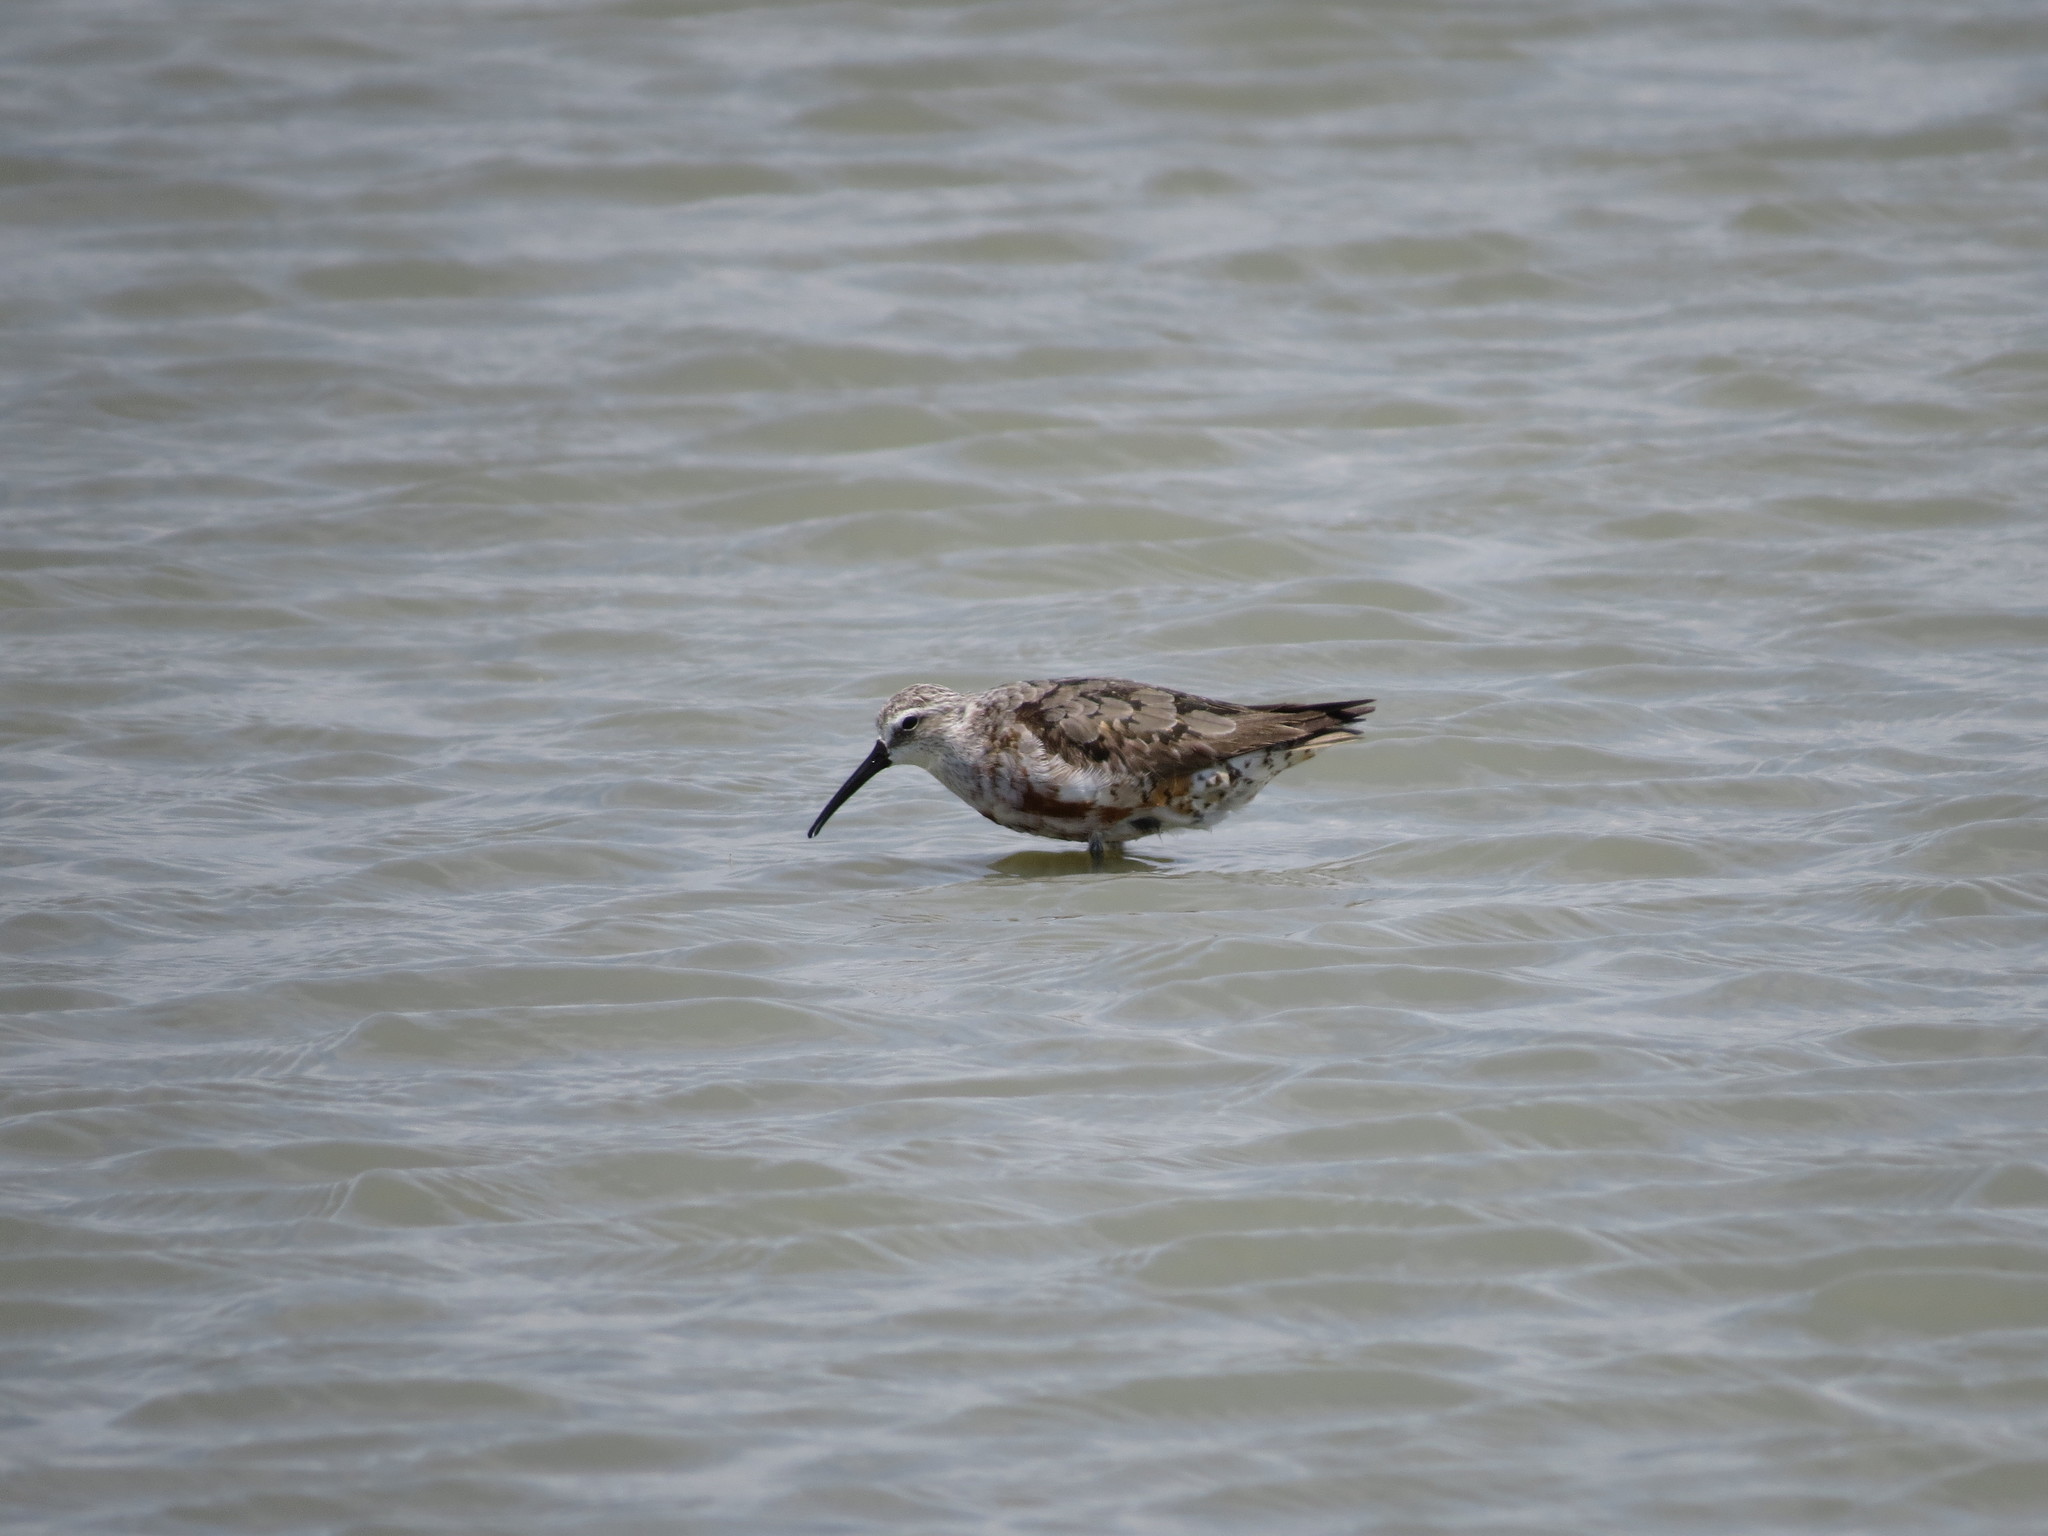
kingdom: Animalia
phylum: Chordata
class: Aves
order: Charadriiformes
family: Scolopacidae
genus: Calidris
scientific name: Calidris ferruginea
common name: Curlew sandpiper
